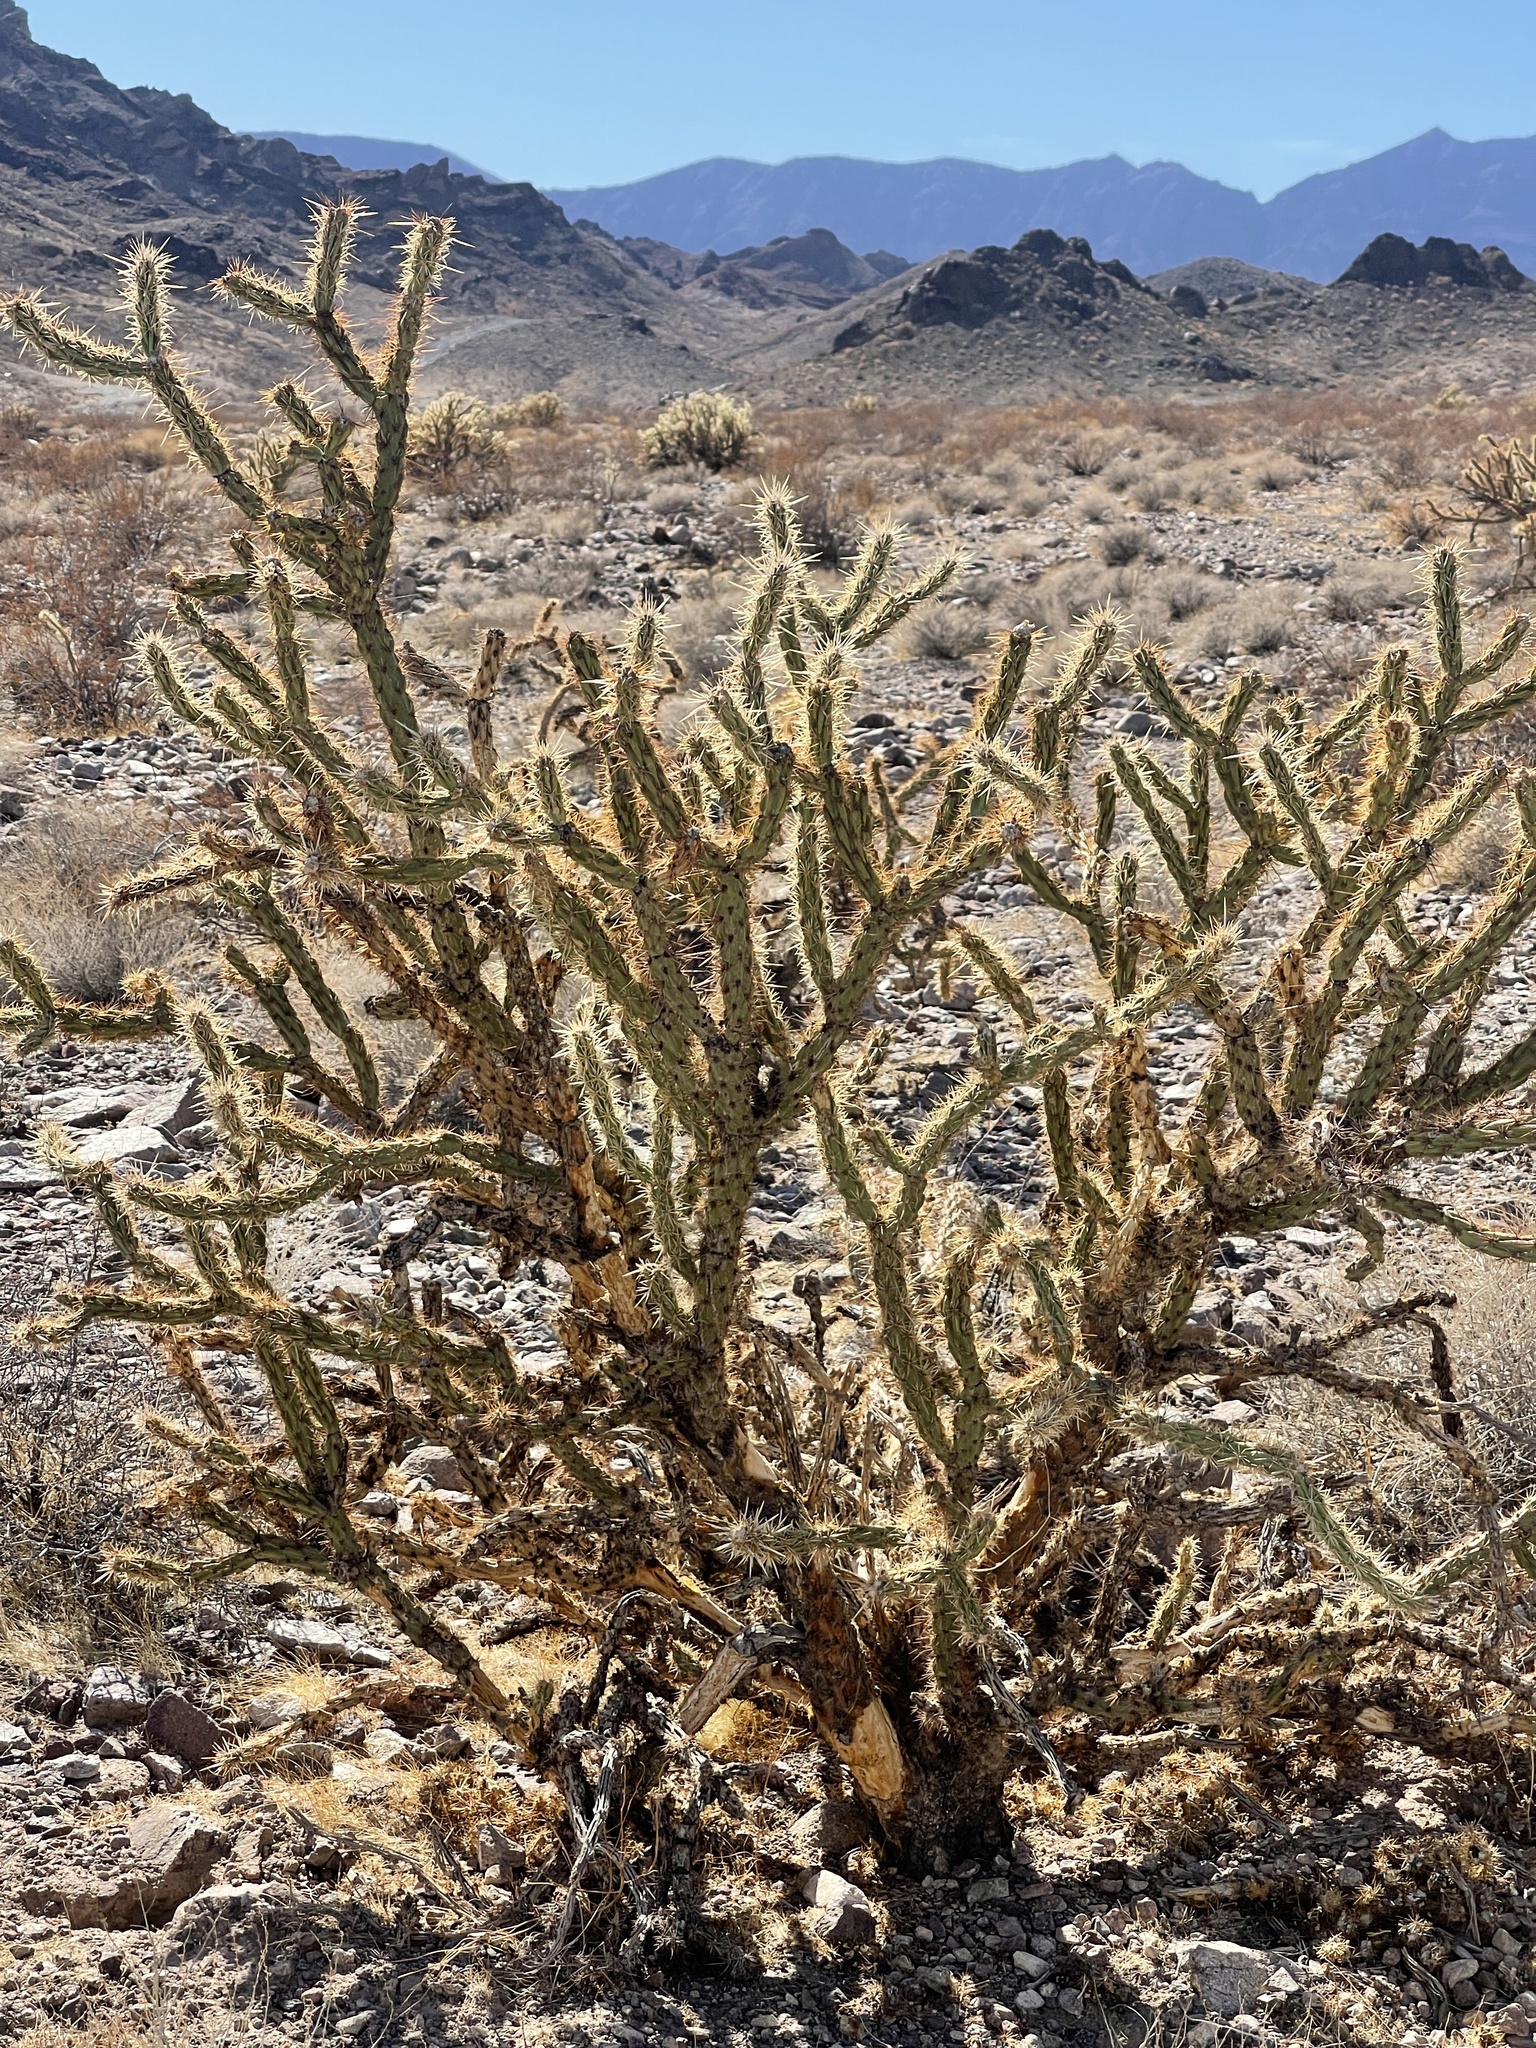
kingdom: Plantae
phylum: Tracheophyta
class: Magnoliopsida
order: Caryophyllales
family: Cactaceae
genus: Cylindropuntia
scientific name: Cylindropuntia acanthocarpa
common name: Buckhorn cholla
